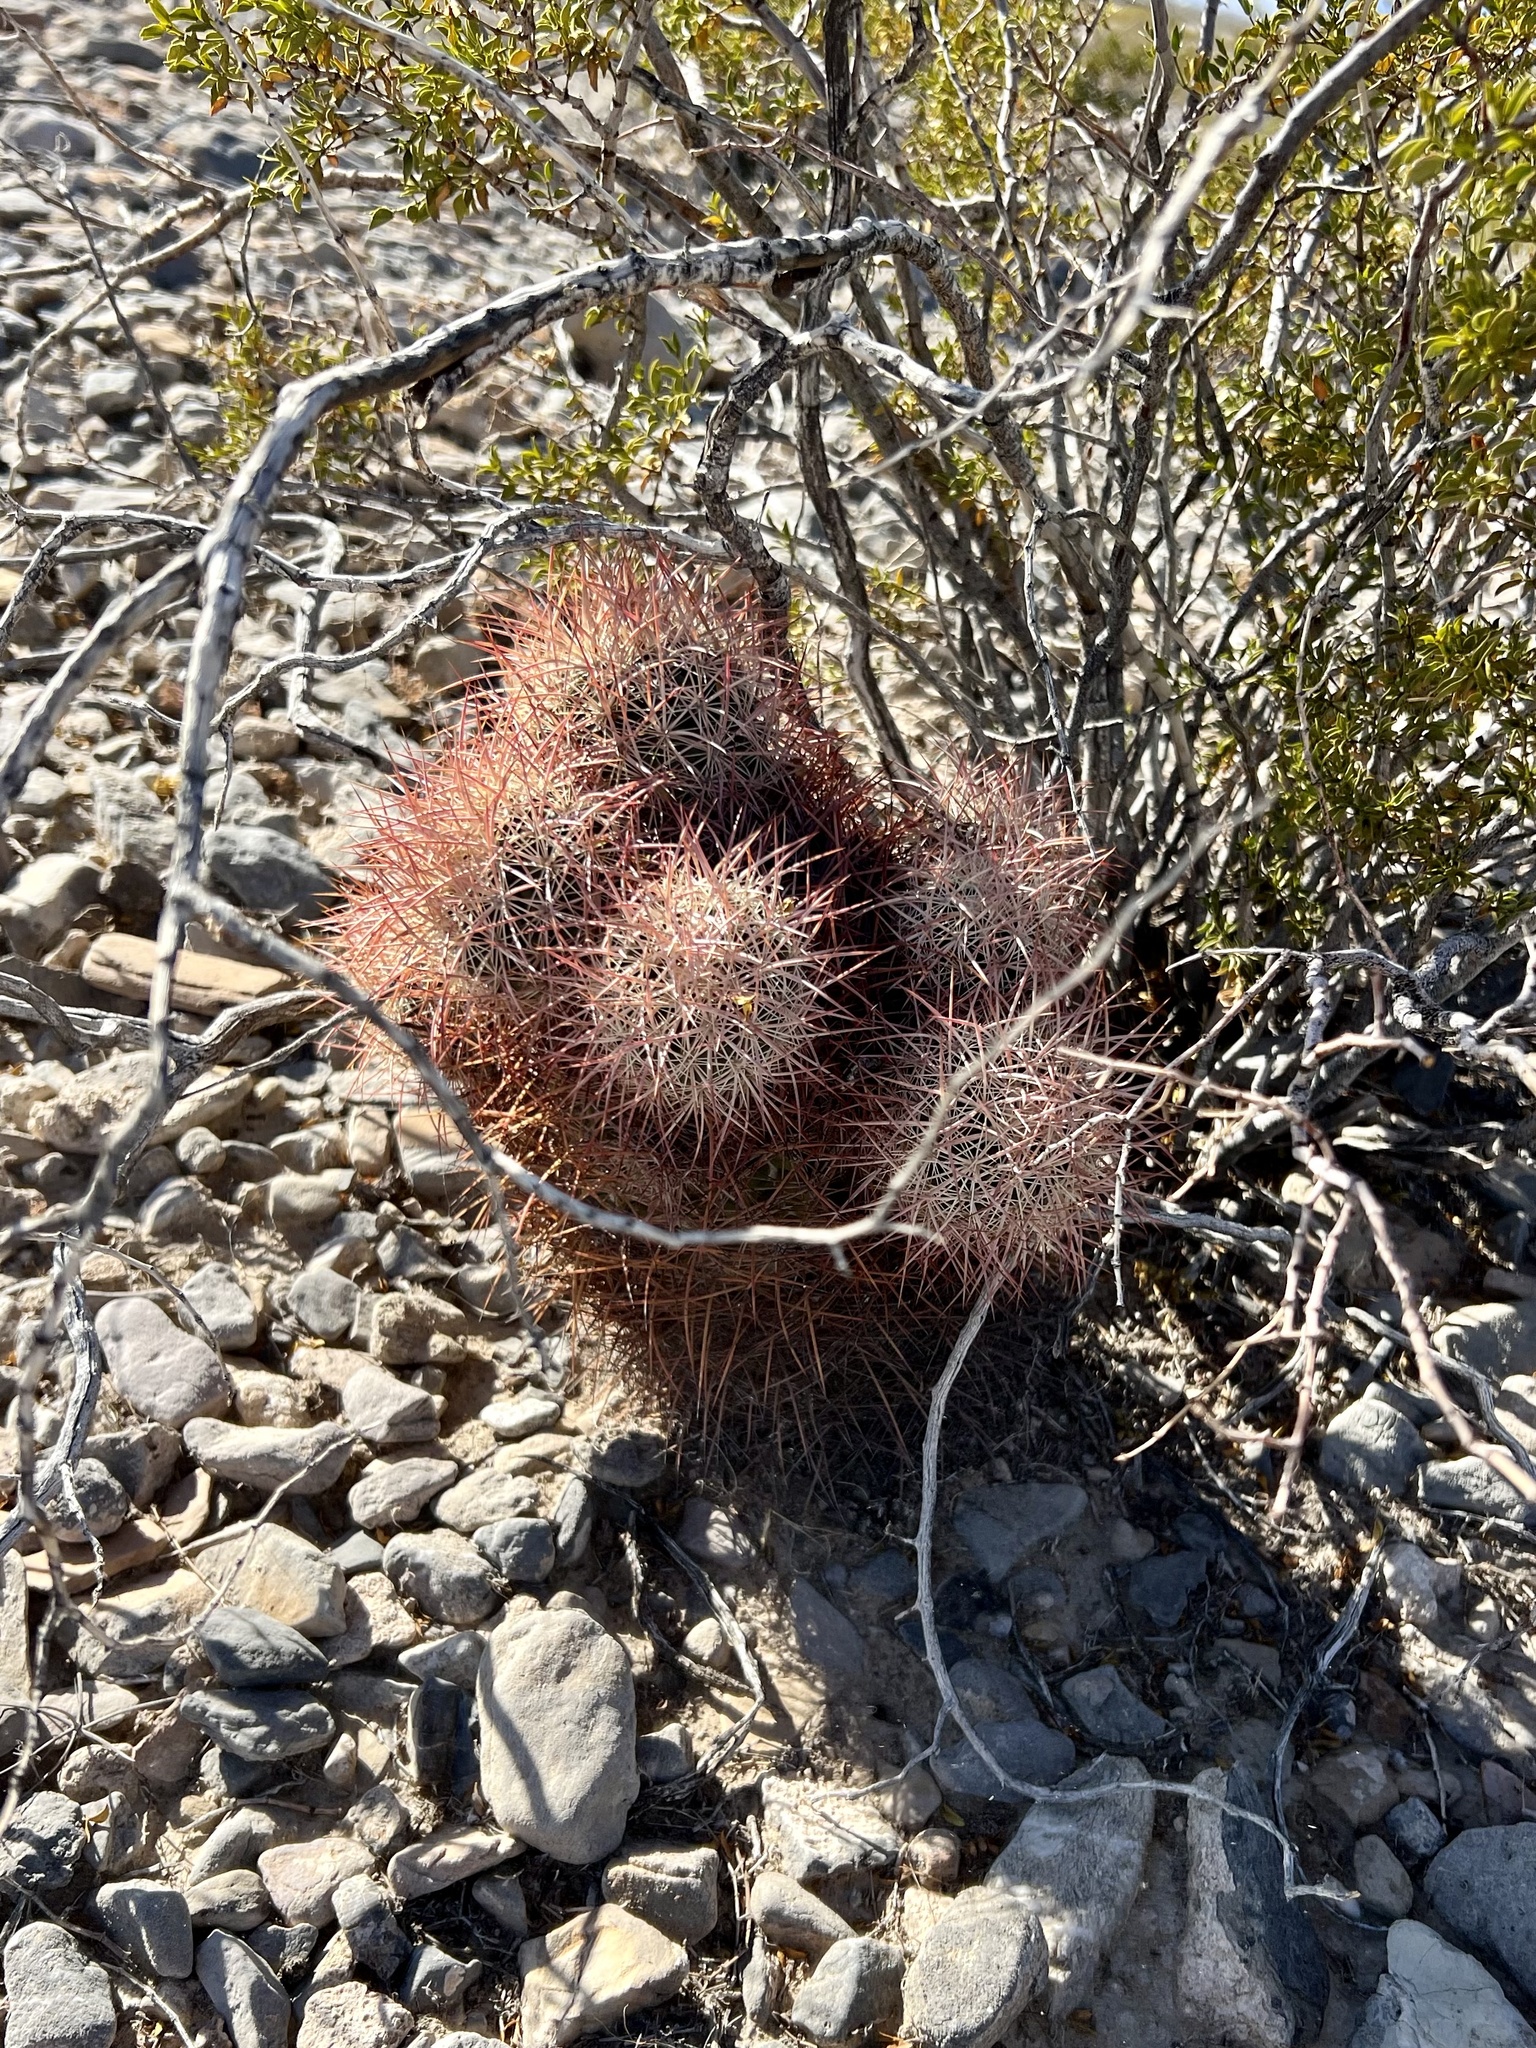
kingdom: Plantae
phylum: Tracheophyta
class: Magnoliopsida
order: Caryophyllales
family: Cactaceae
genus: Sclerocactus
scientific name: Sclerocactus johnsonii
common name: Eight-spine fishhook cactus
